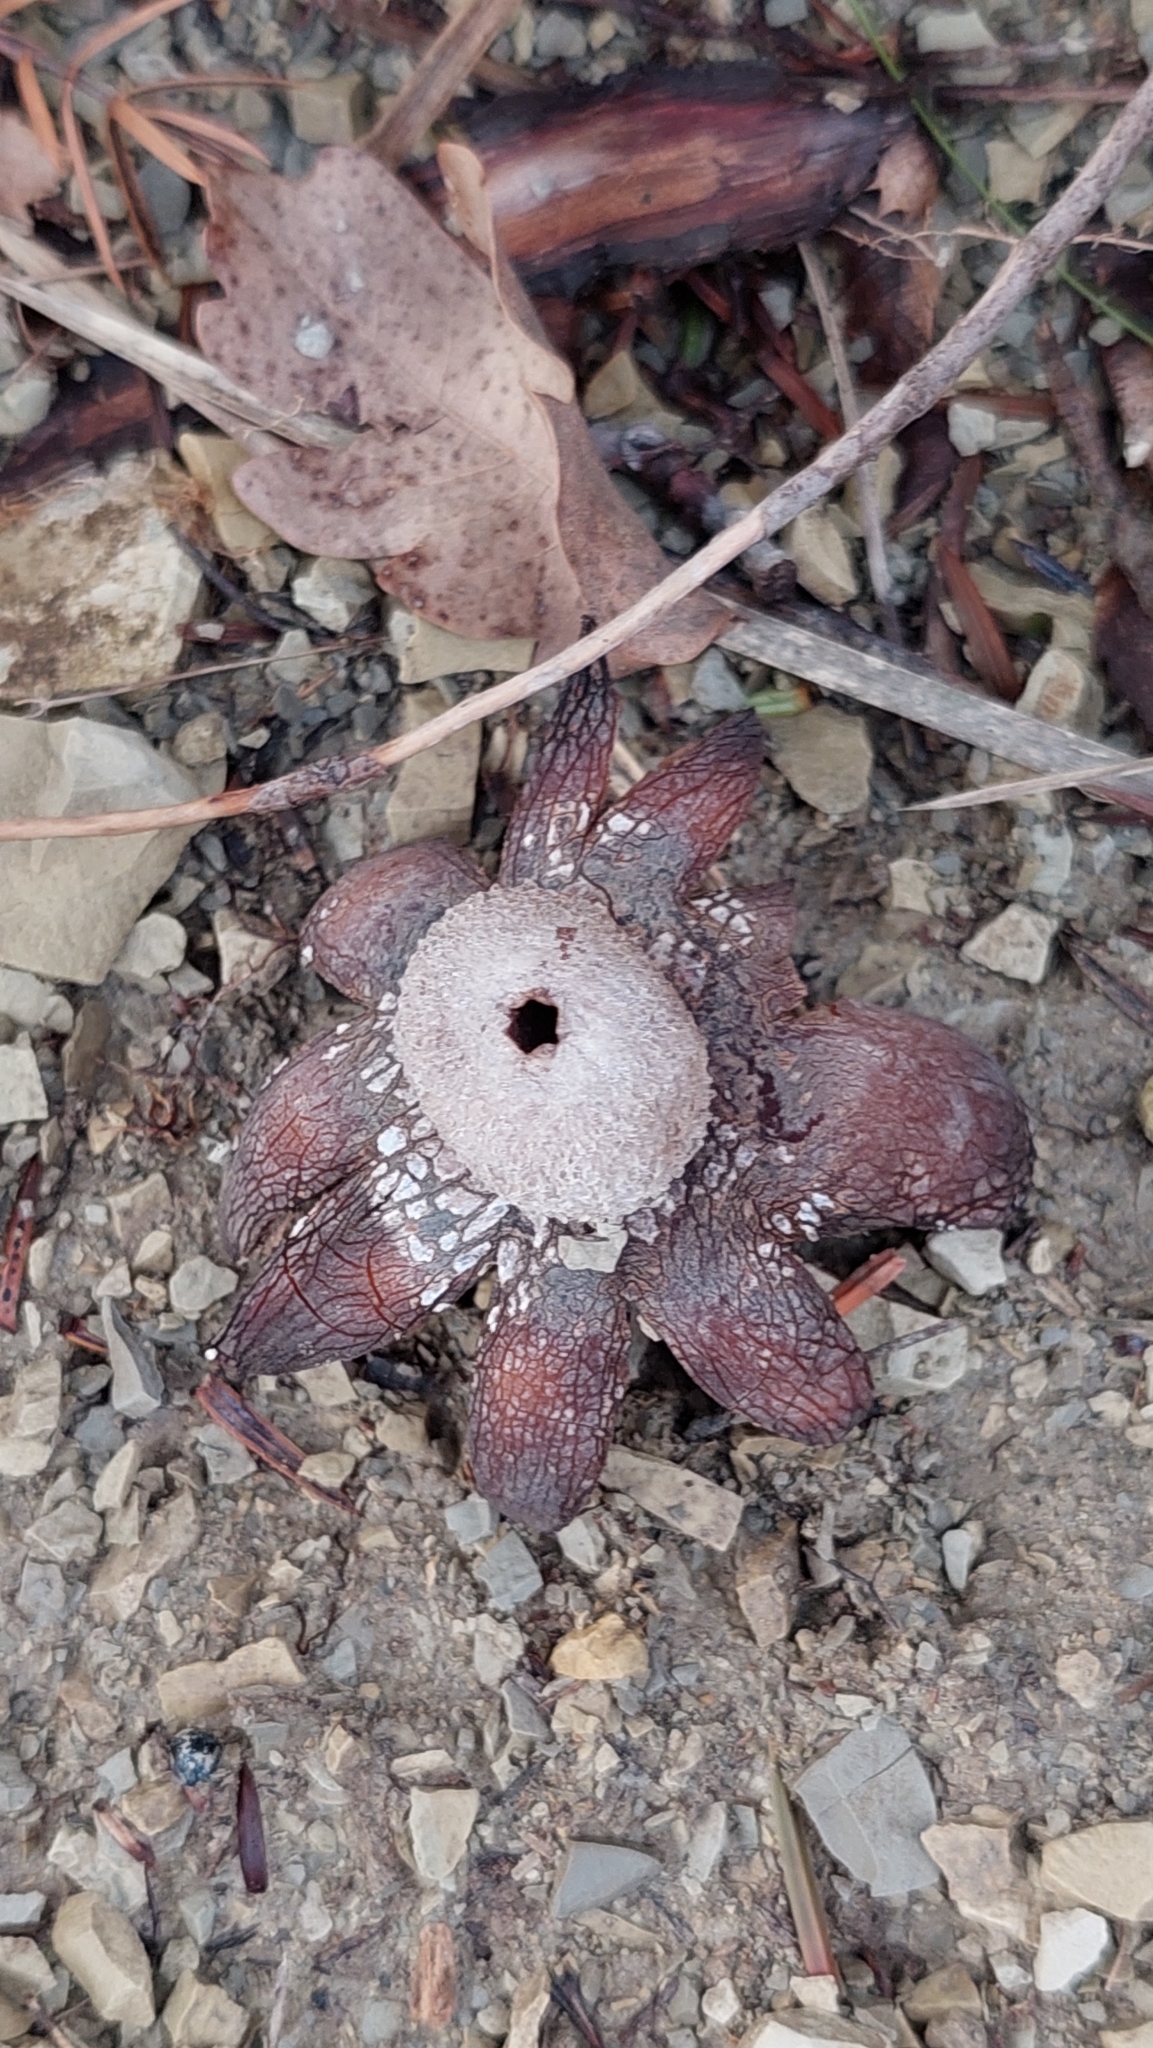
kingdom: Fungi
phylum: Basidiomycota
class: Agaricomycetes
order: Boletales
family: Diplocystidiaceae
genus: Astraeus
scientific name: Astraeus hygrometricus
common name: Barometer earthstar
